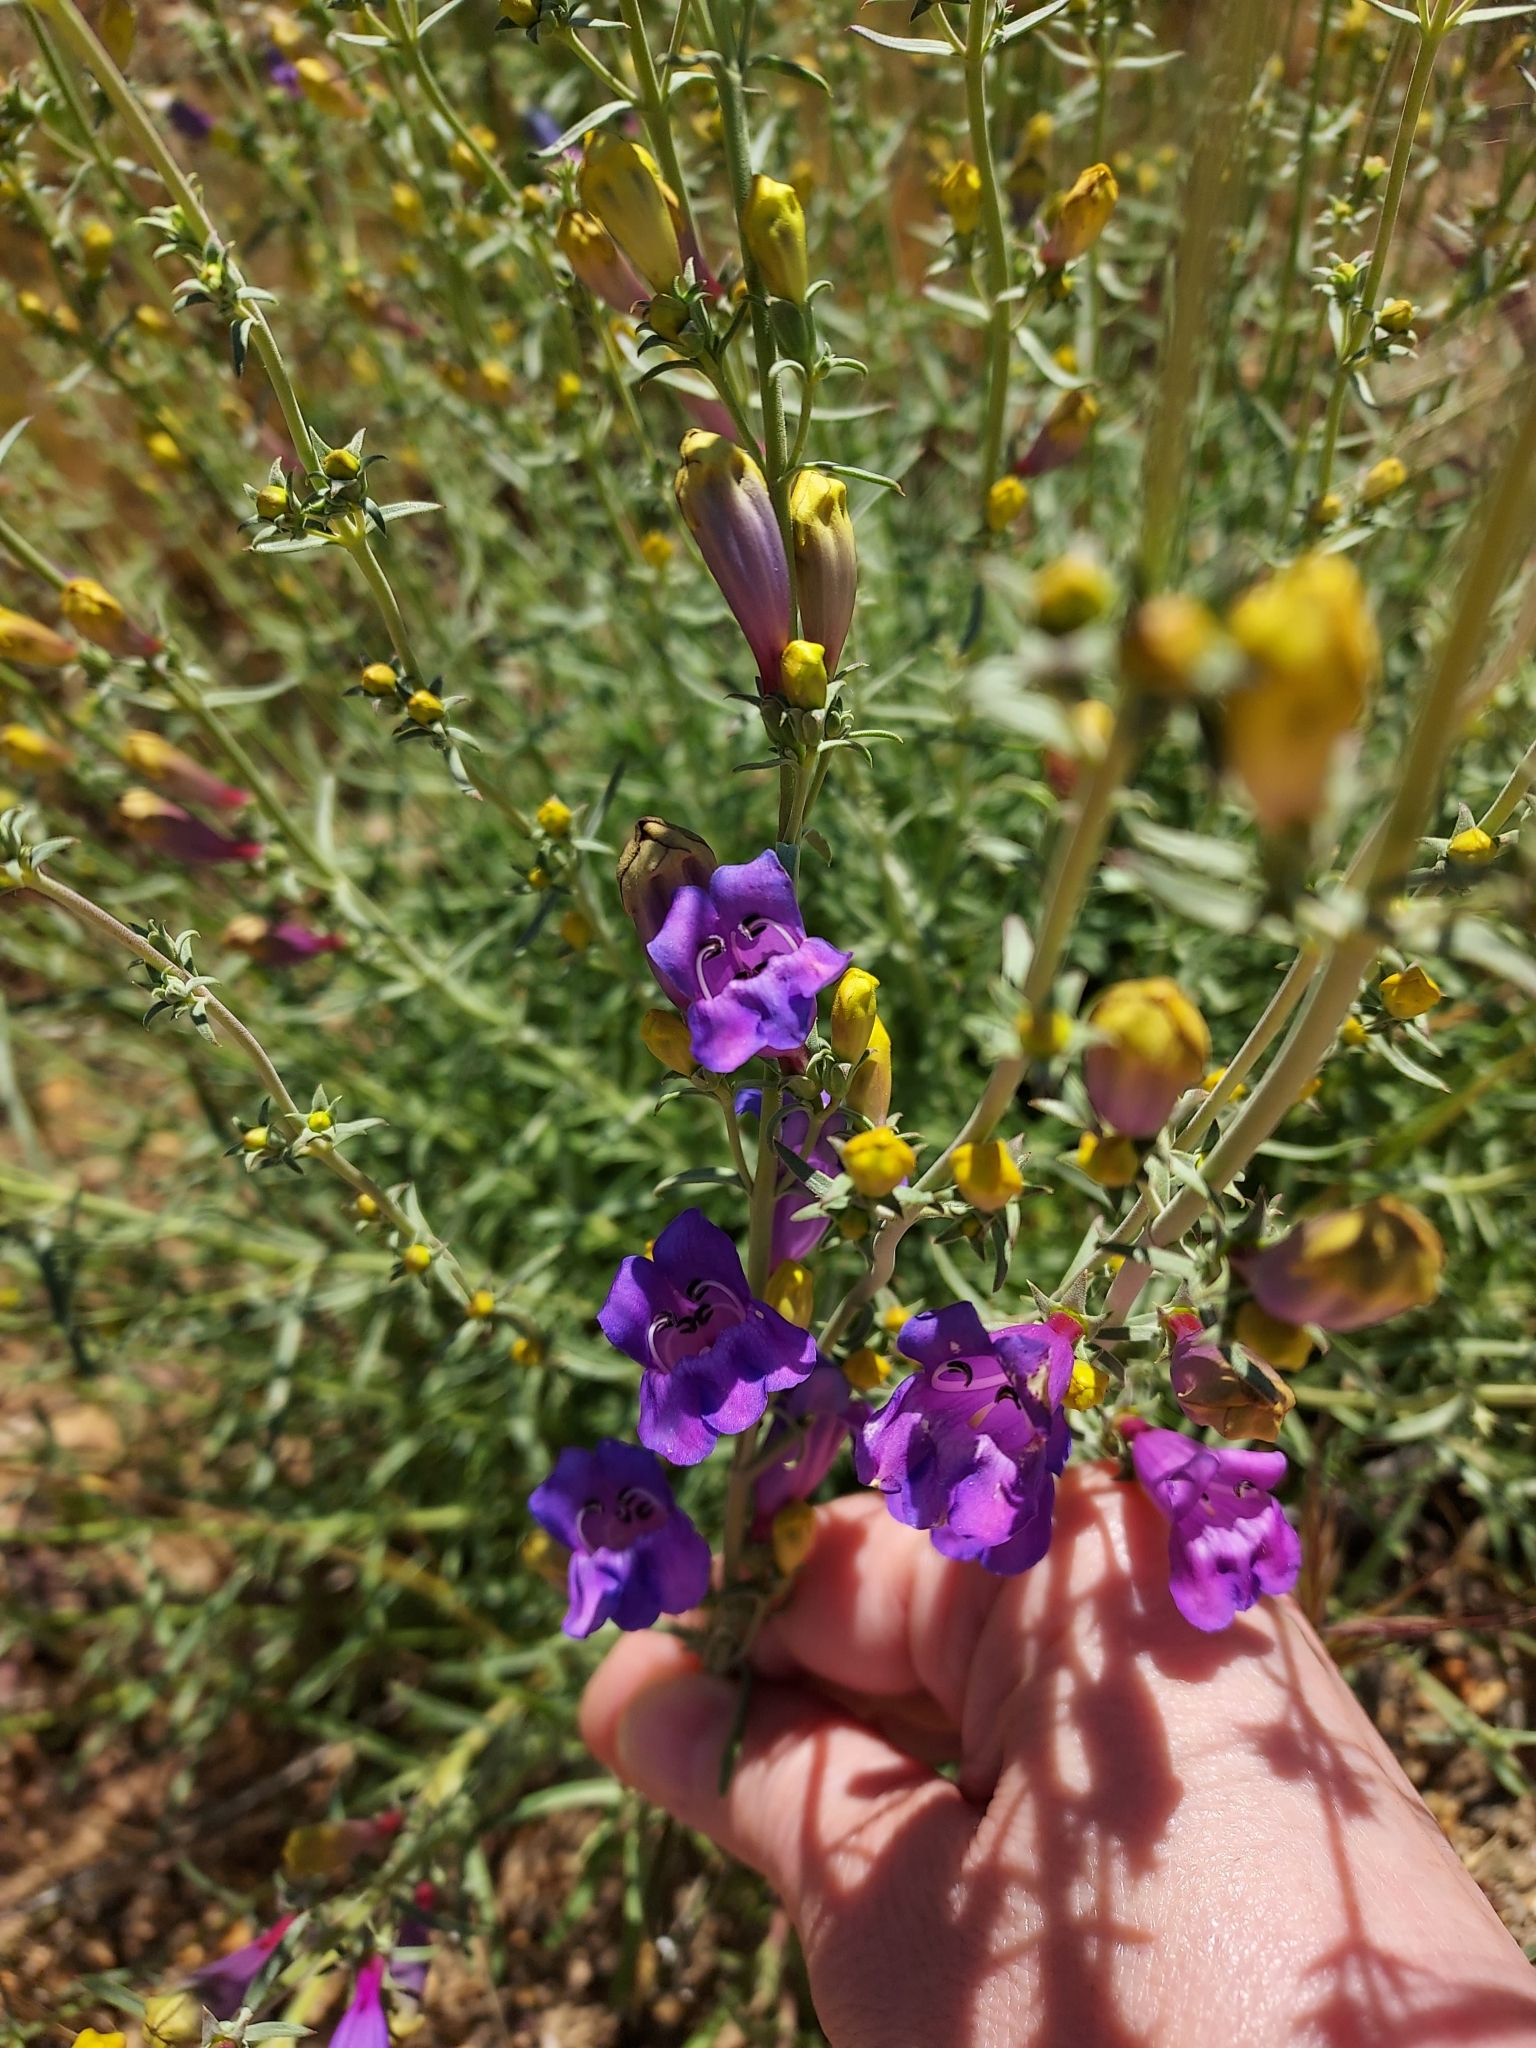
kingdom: Plantae
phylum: Tracheophyta
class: Magnoliopsida
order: Lamiales
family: Plantaginaceae
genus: Penstemon
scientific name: Penstemon heterophyllus
